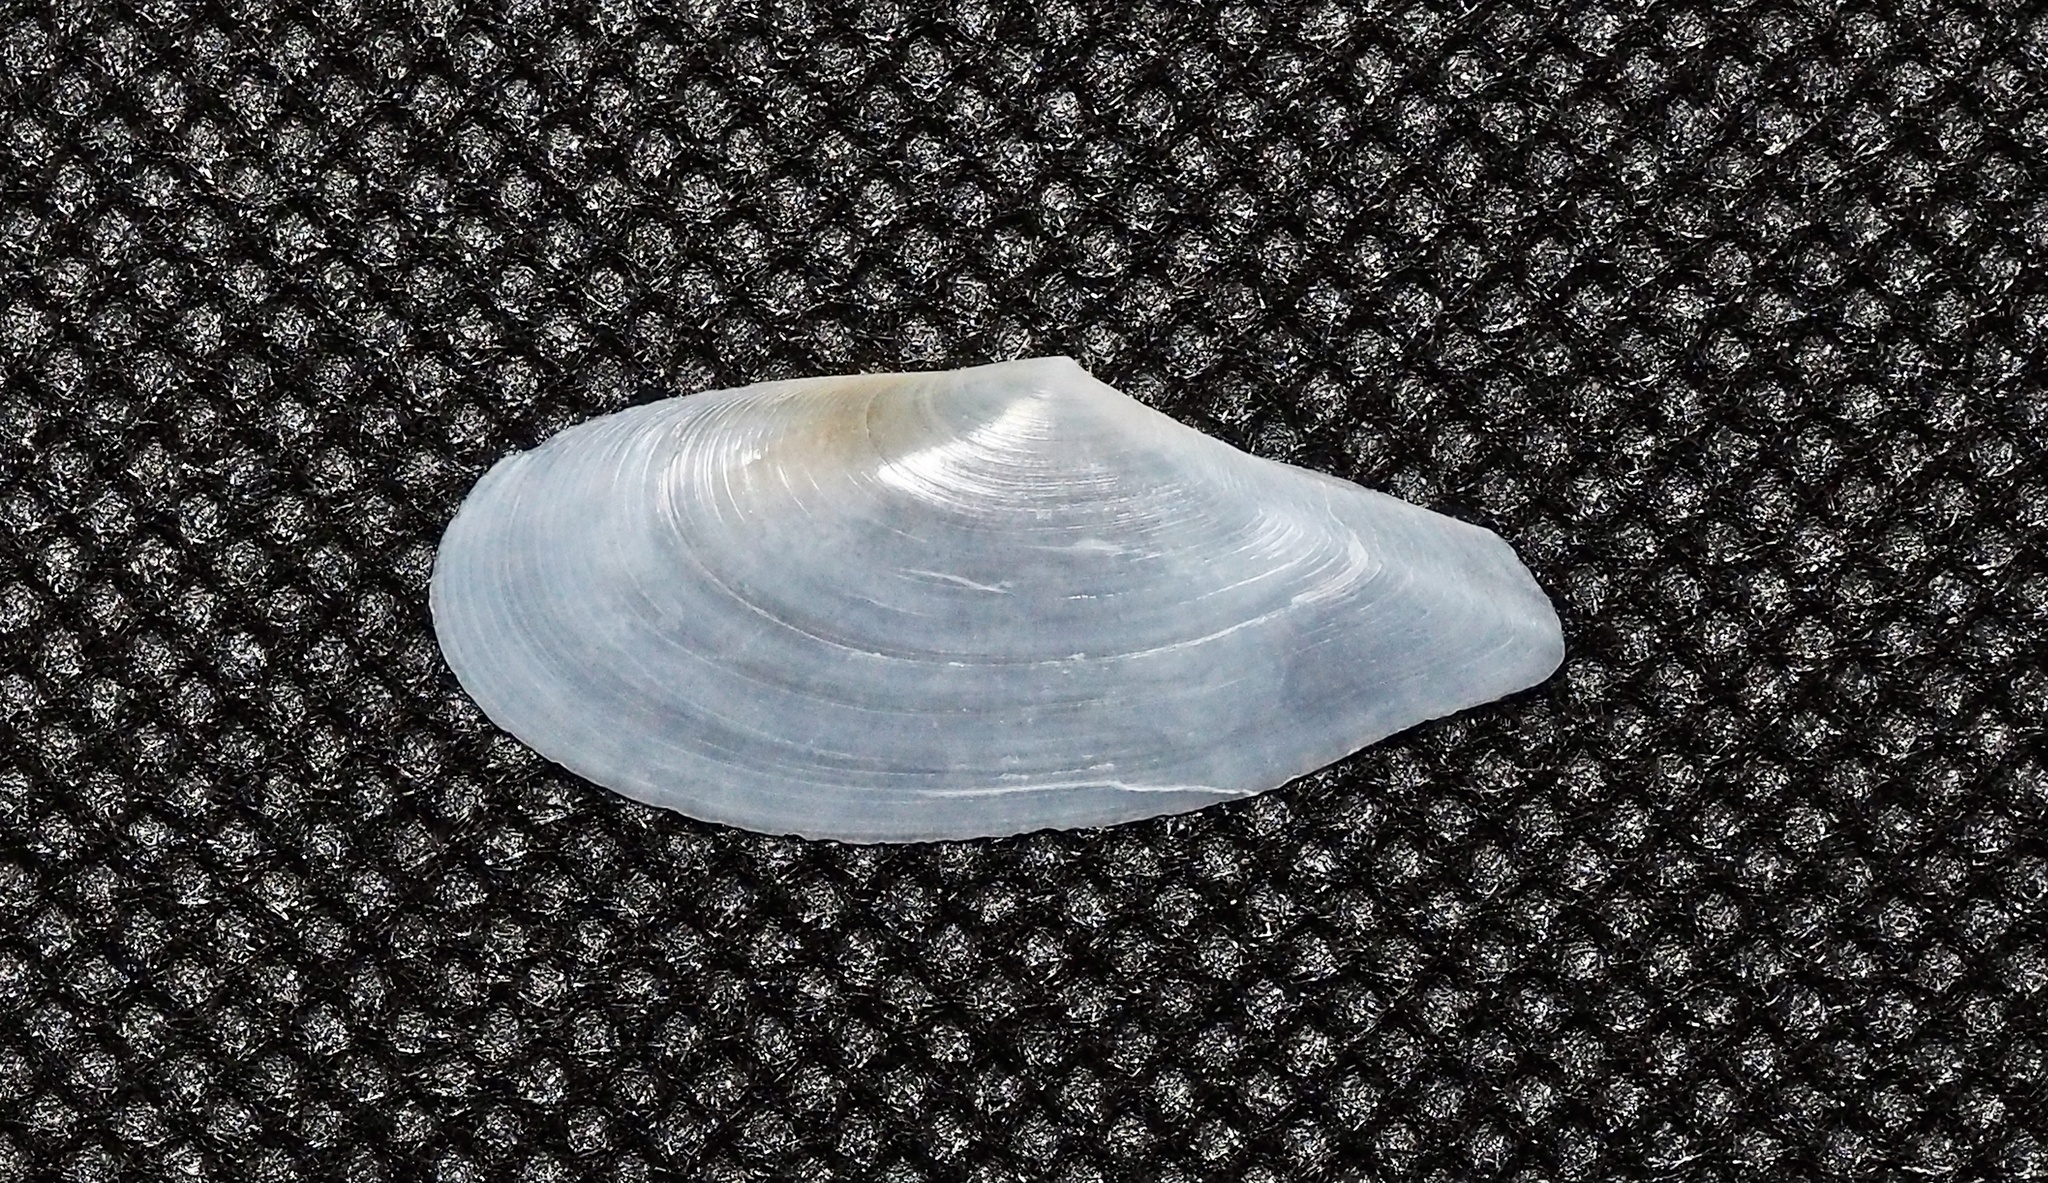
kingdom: Animalia
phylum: Mollusca
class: Bivalvia
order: Cardiida
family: Tellinidae
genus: Pharaonella
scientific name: Pharaonella sieboldii
